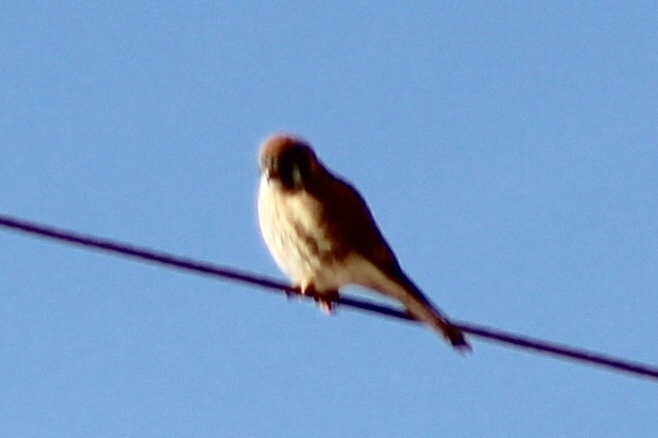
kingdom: Animalia
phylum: Chordata
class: Aves
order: Falconiformes
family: Falconidae
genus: Falco
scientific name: Falco sparverius
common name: American kestrel
